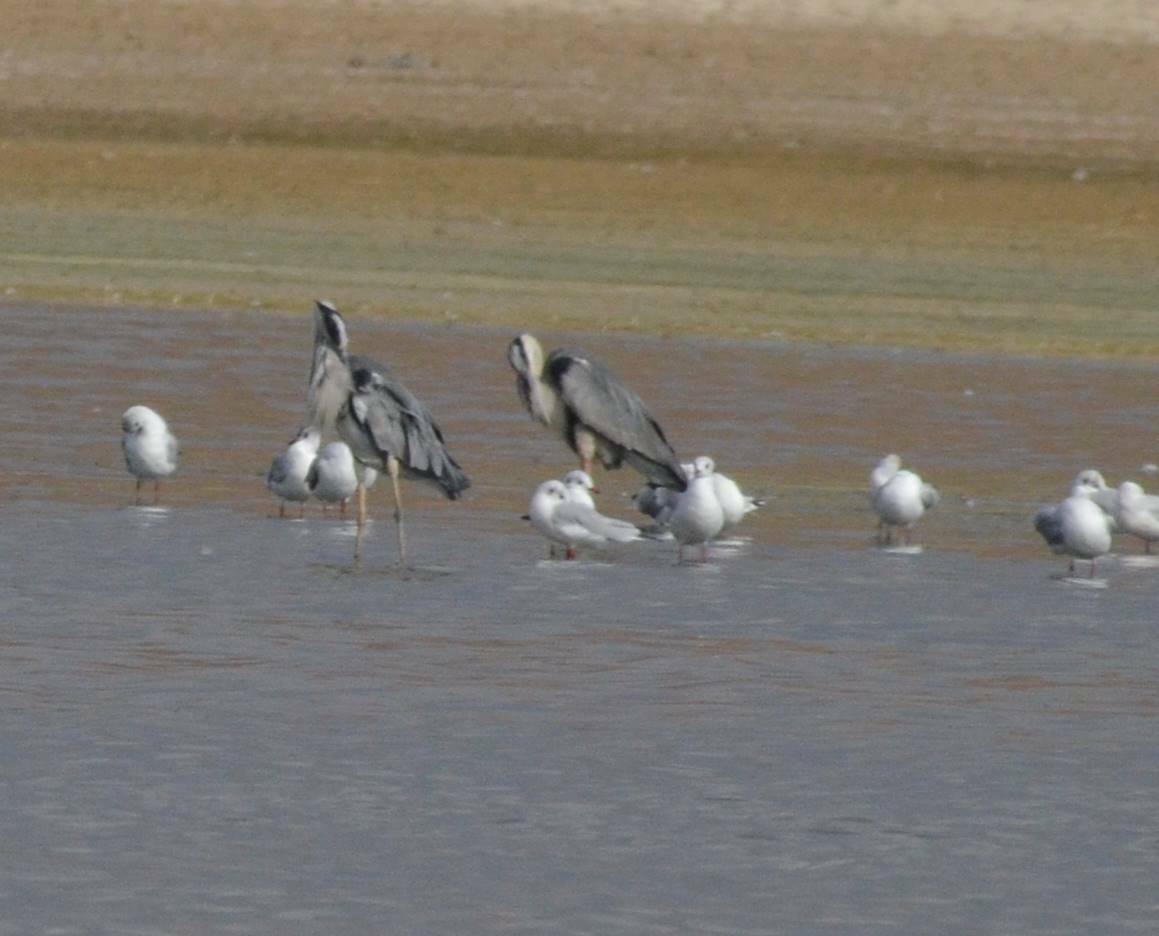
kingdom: Animalia
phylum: Chordata
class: Aves
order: Pelecaniformes
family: Ardeidae
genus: Ardea
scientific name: Ardea cinerea
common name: Grey heron
